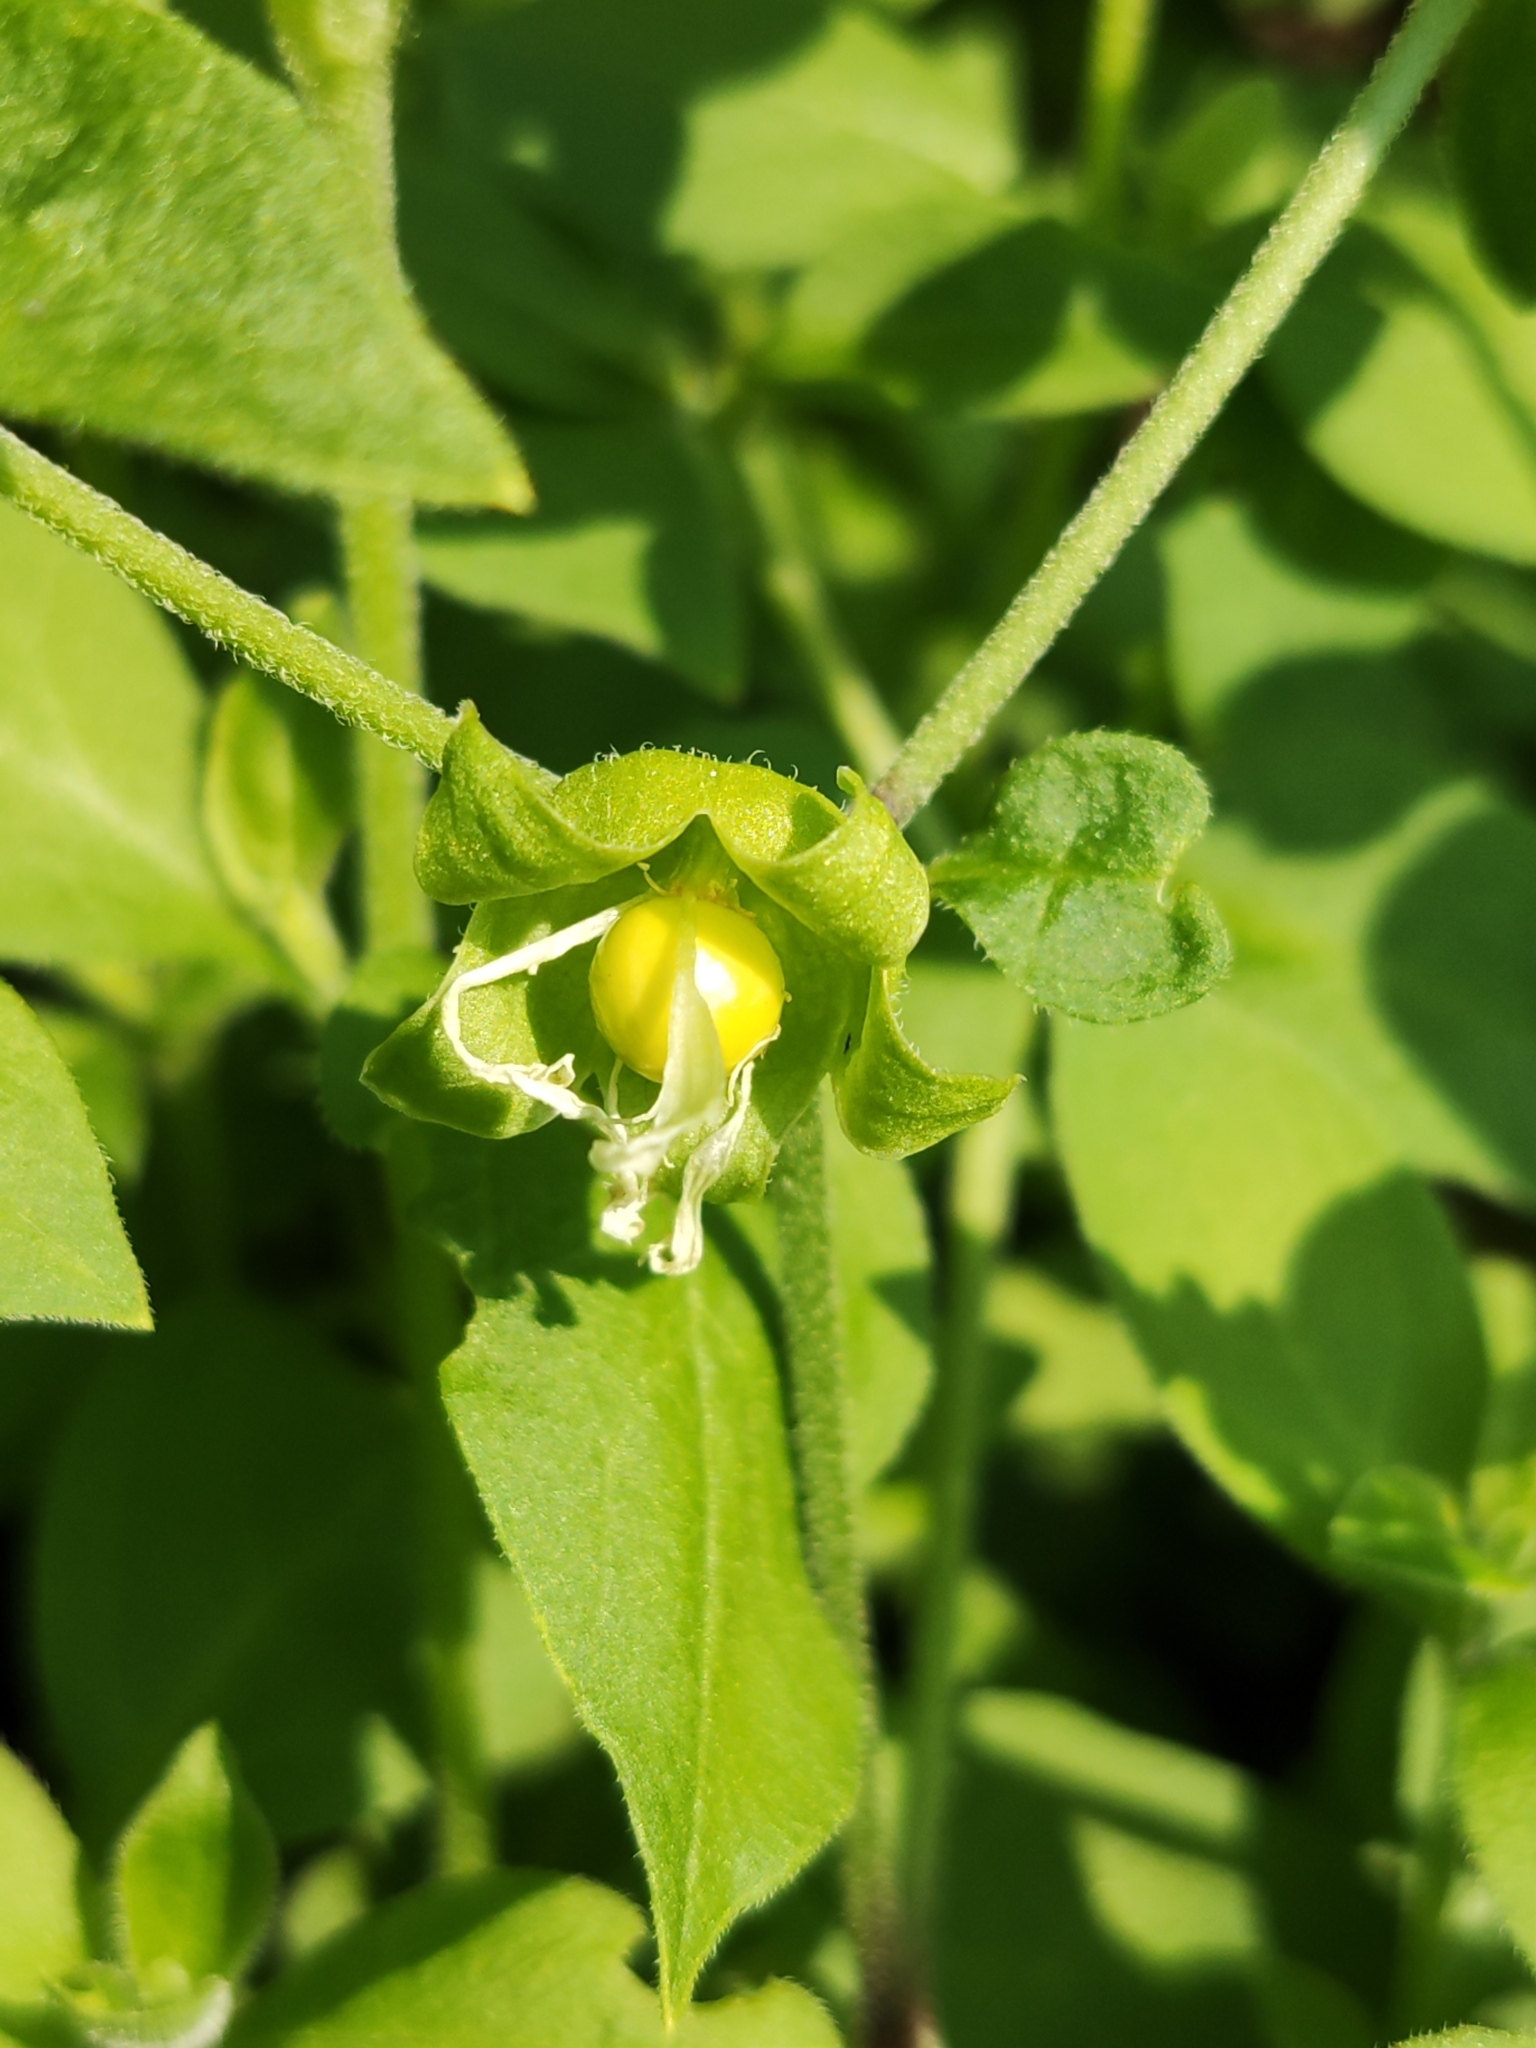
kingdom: Plantae
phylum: Tracheophyta
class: Magnoliopsida
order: Caryophyllales
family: Caryophyllaceae
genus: Silene
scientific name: Silene baccifera
